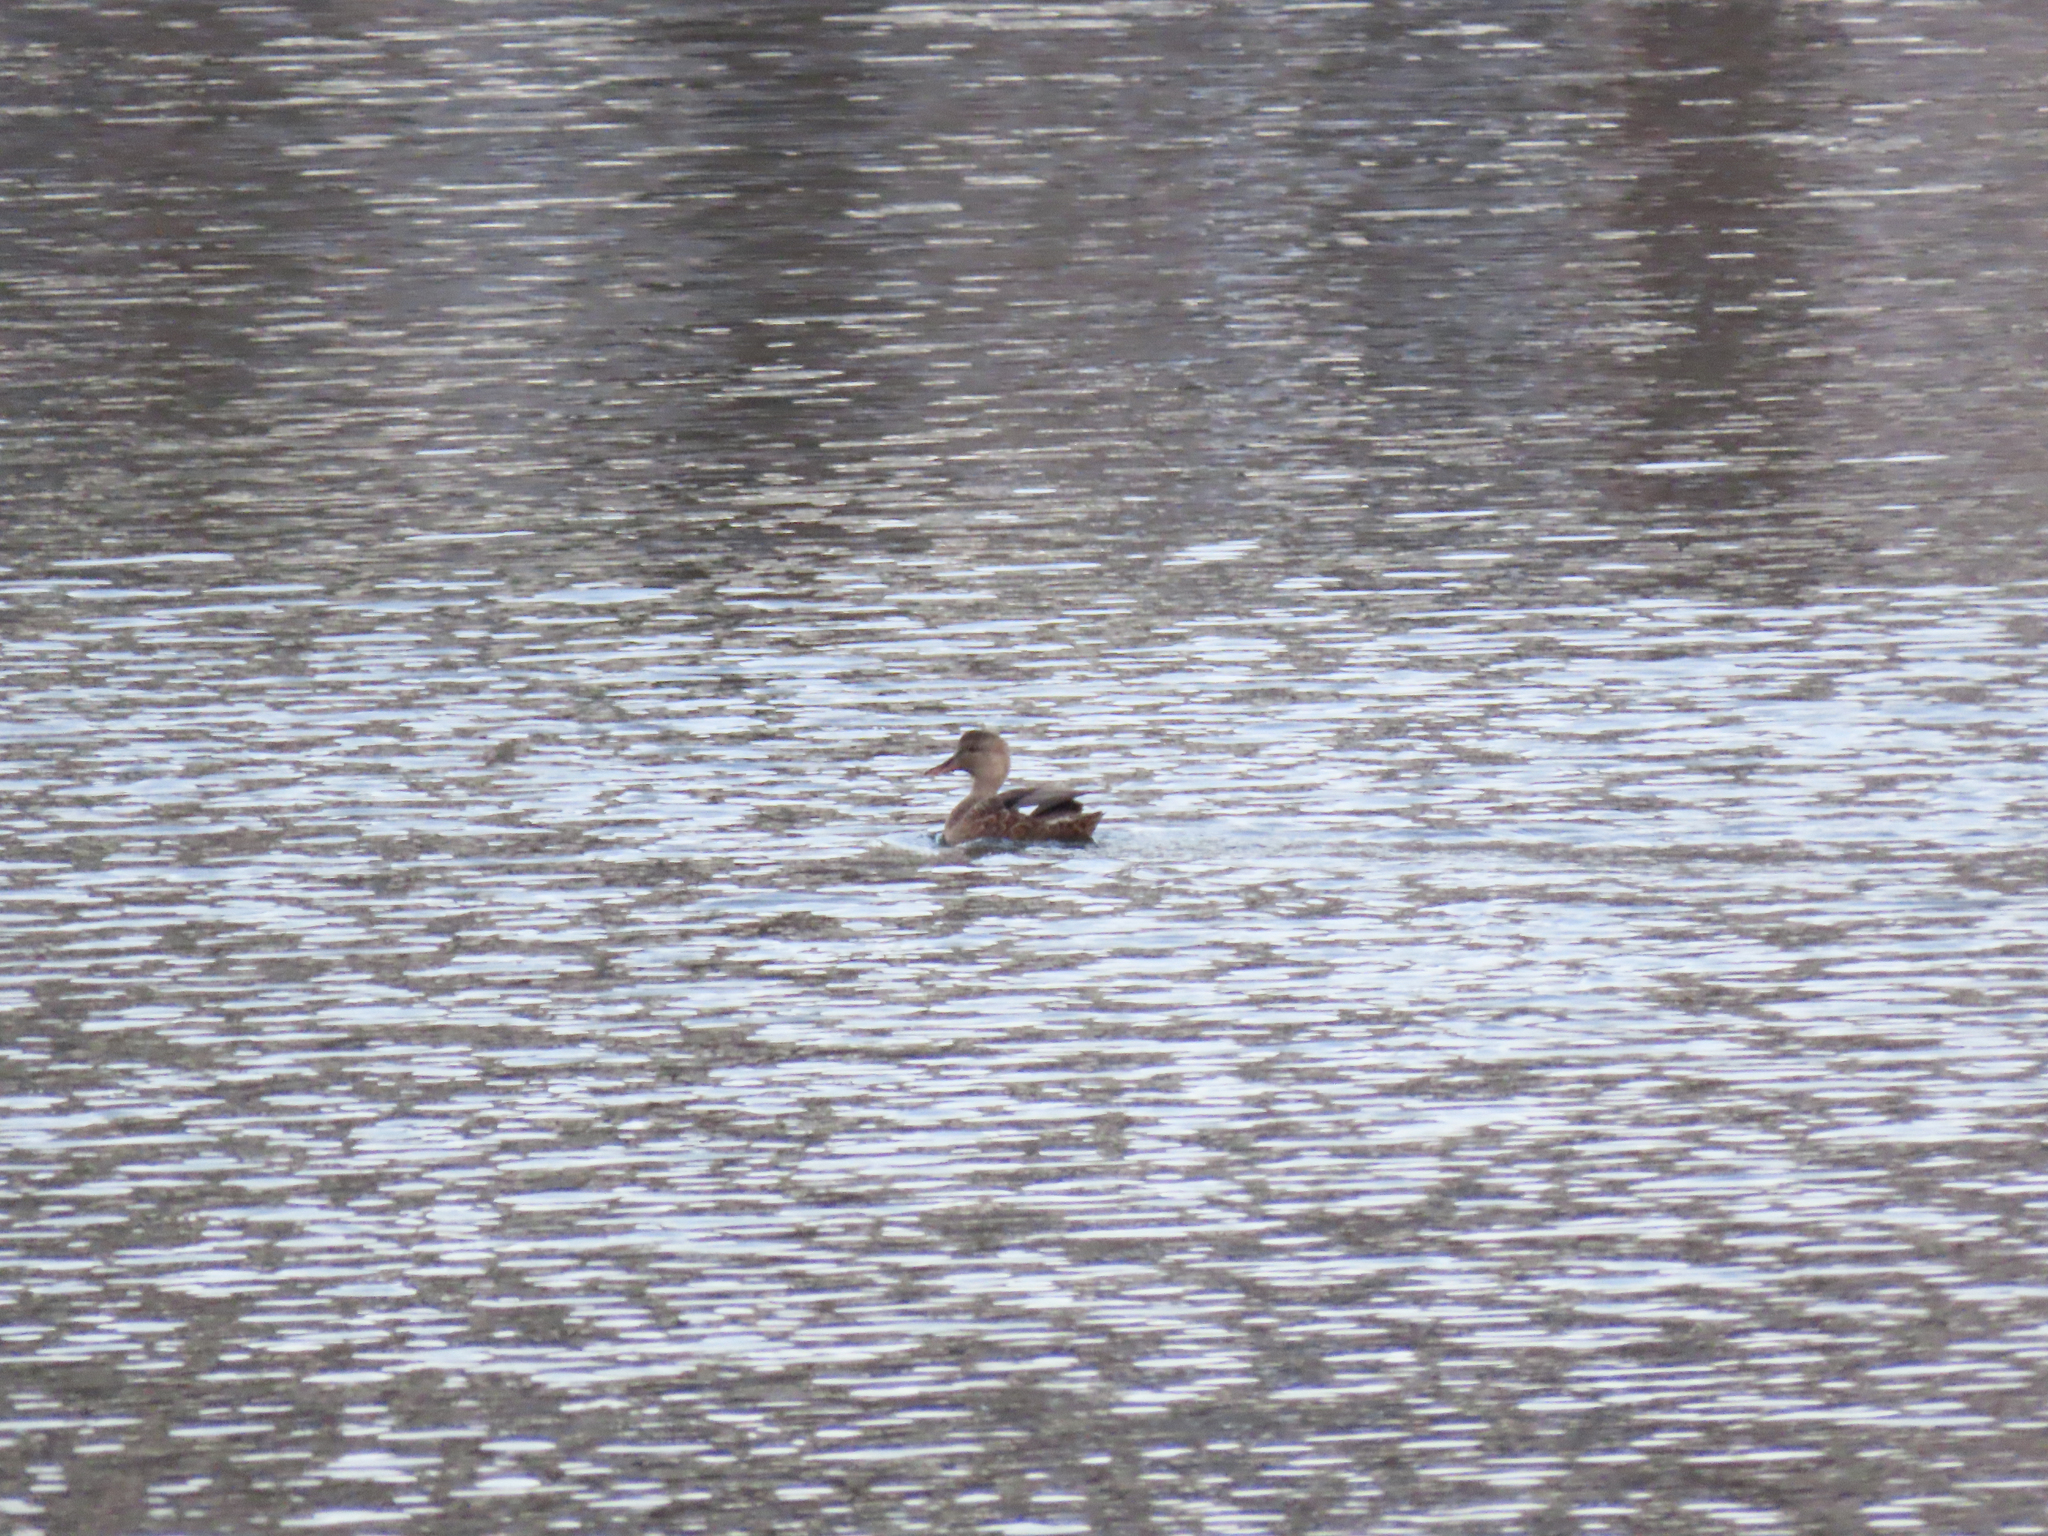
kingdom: Animalia
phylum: Chordata
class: Aves
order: Anseriformes
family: Anatidae
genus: Mareca
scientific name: Mareca strepera
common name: Gadwall
